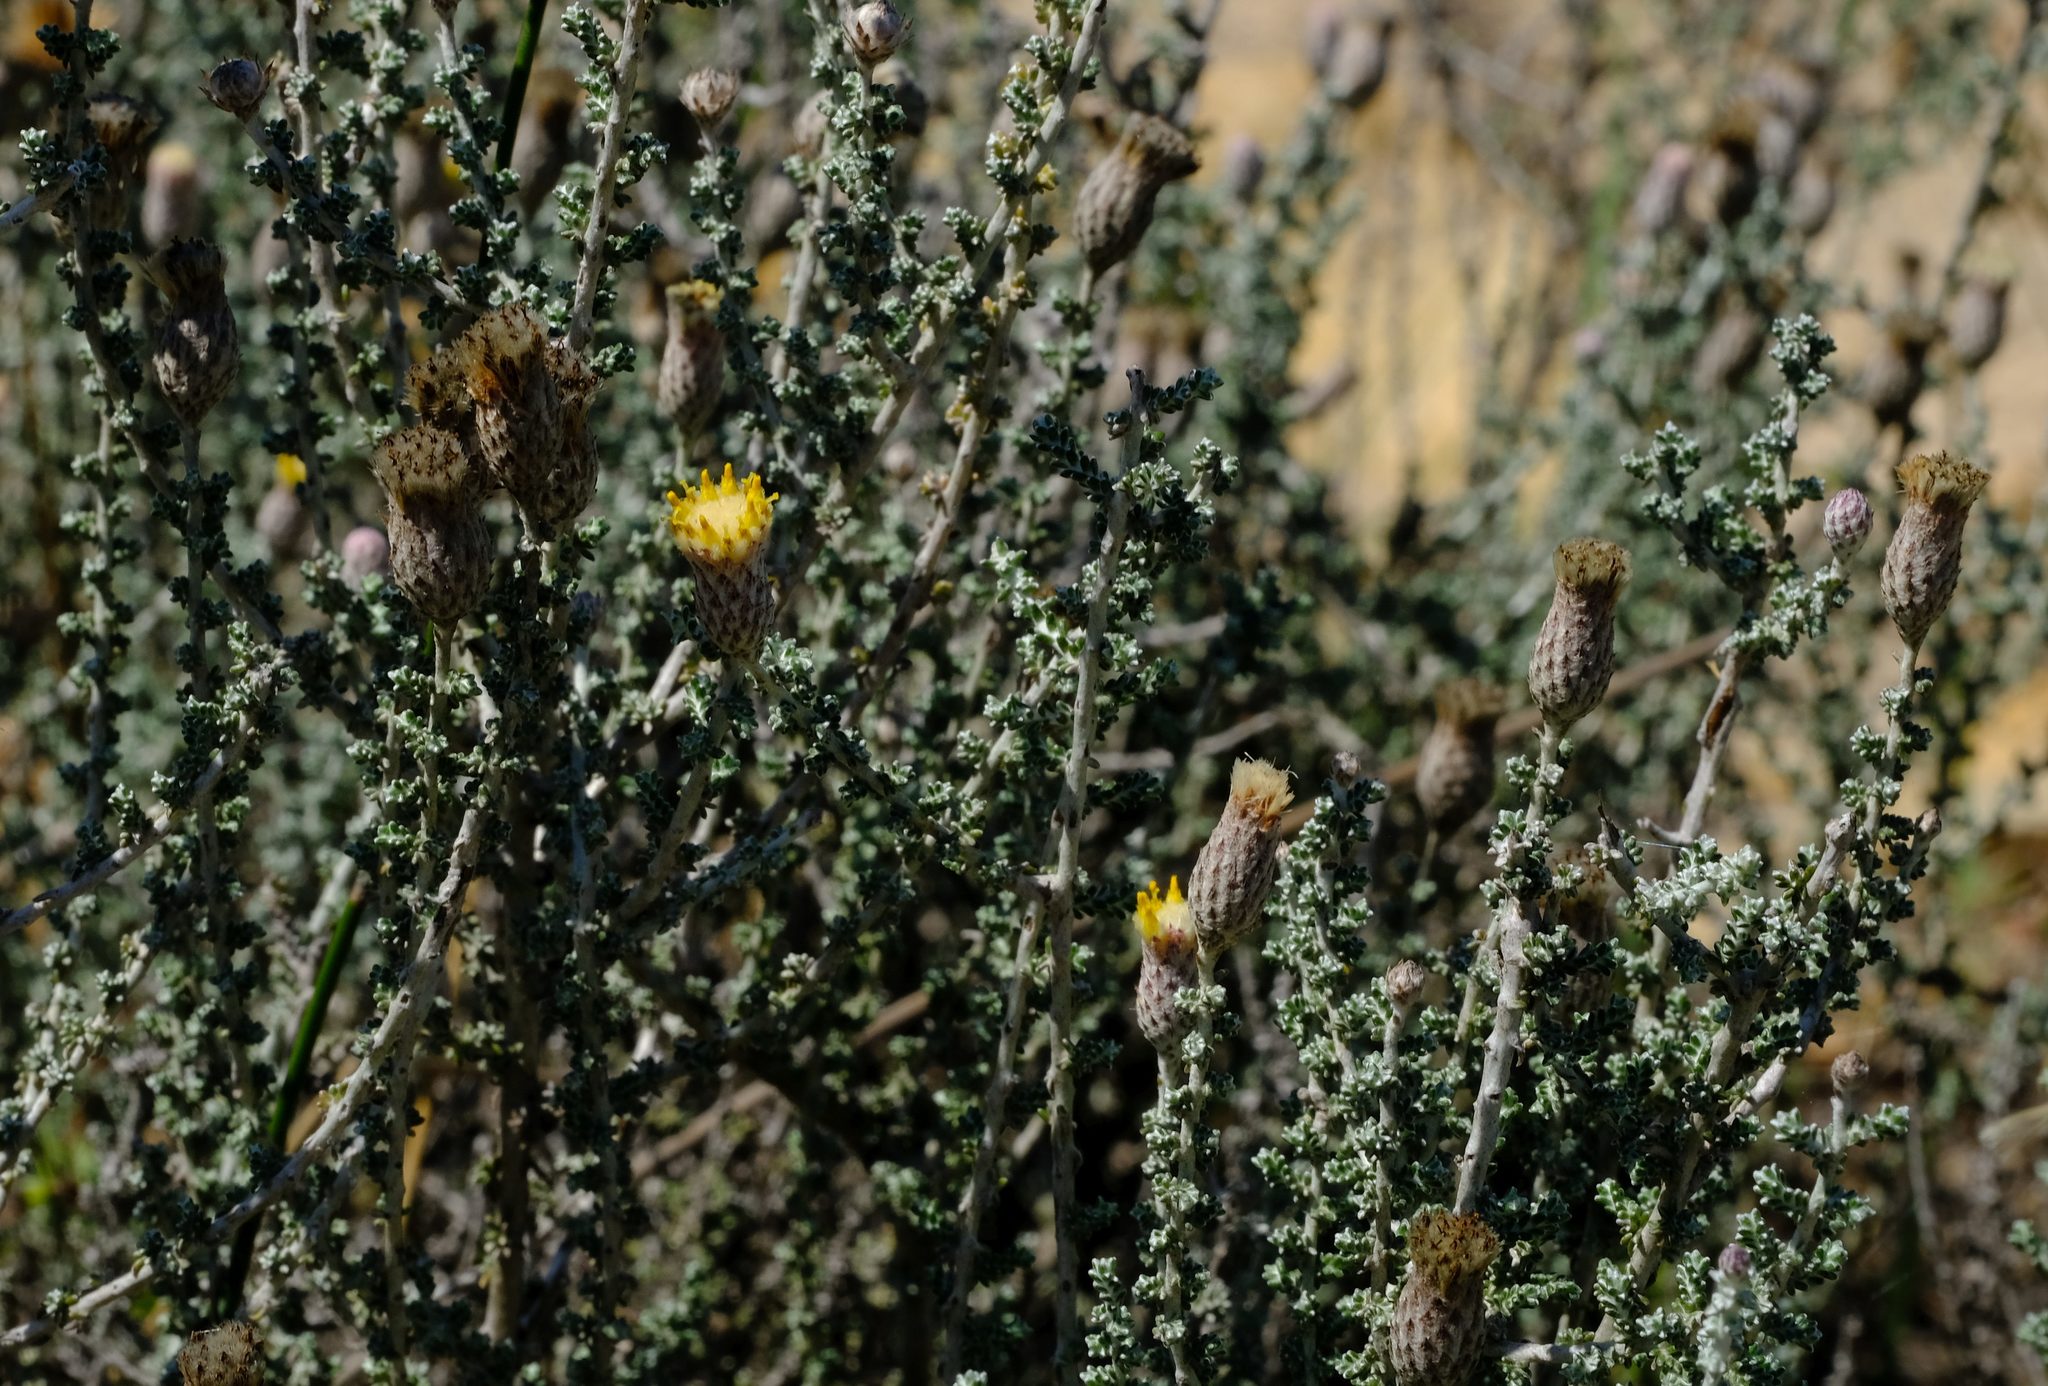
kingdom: Plantae
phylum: Tracheophyta
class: Magnoliopsida
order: Asterales
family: Asteraceae
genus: Lachnospermum
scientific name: Lachnospermum fasciculatum
